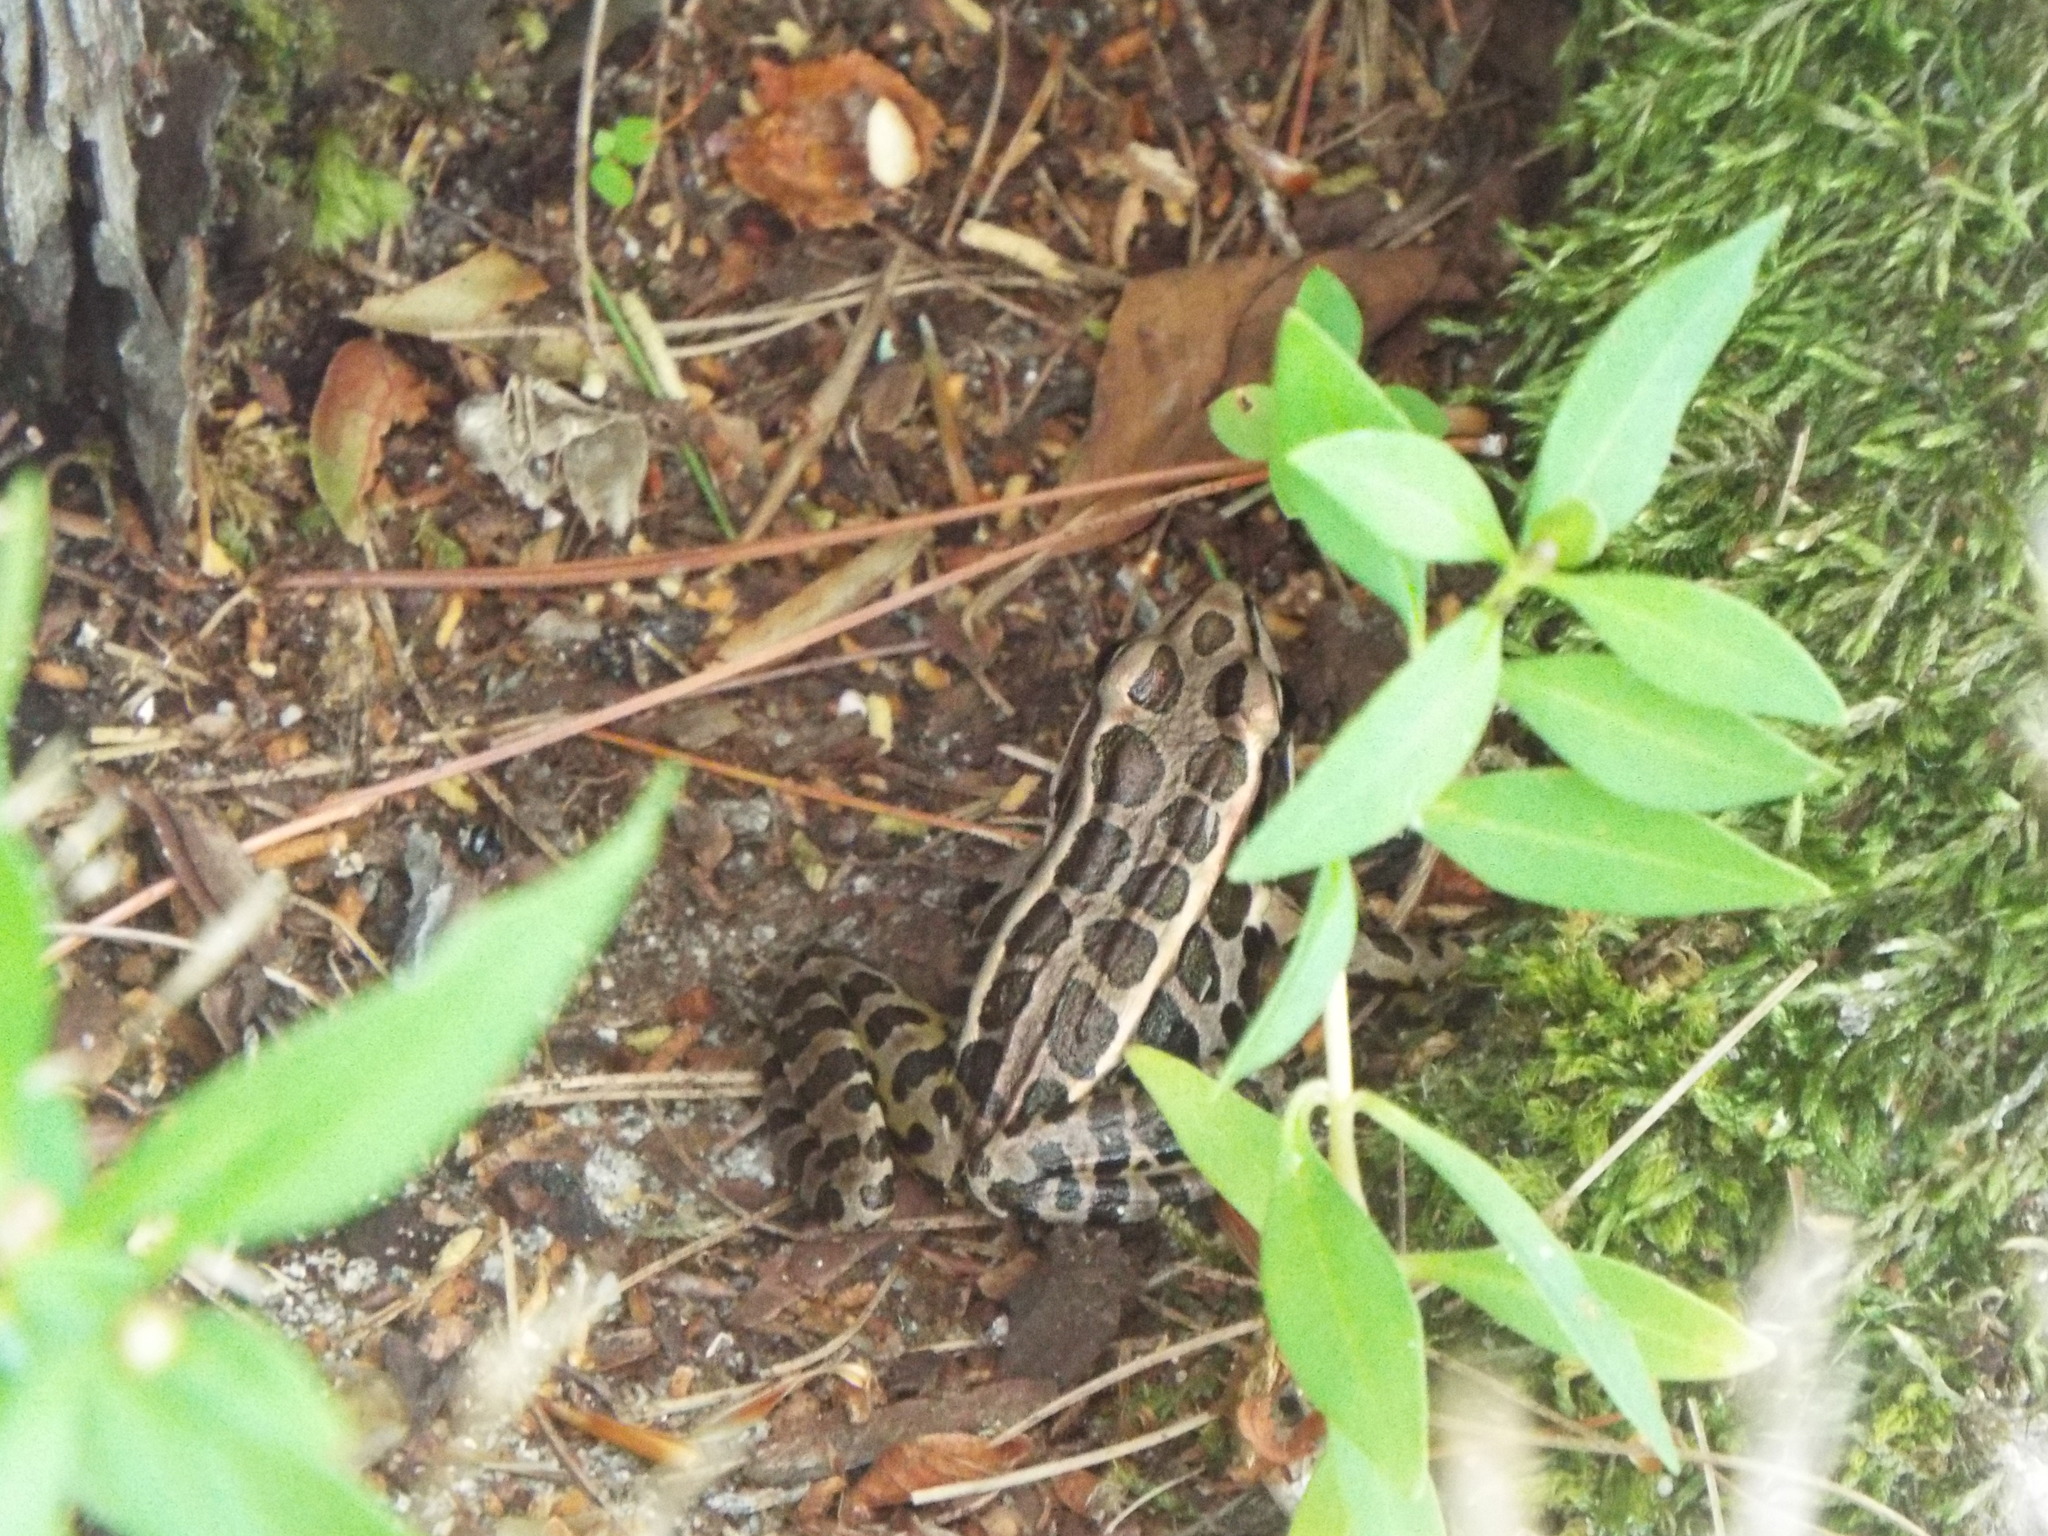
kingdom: Animalia
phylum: Chordata
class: Amphibia
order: Anura
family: Ranidae
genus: Lithobates
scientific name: Lithobates palustris
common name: Pickerel frog
